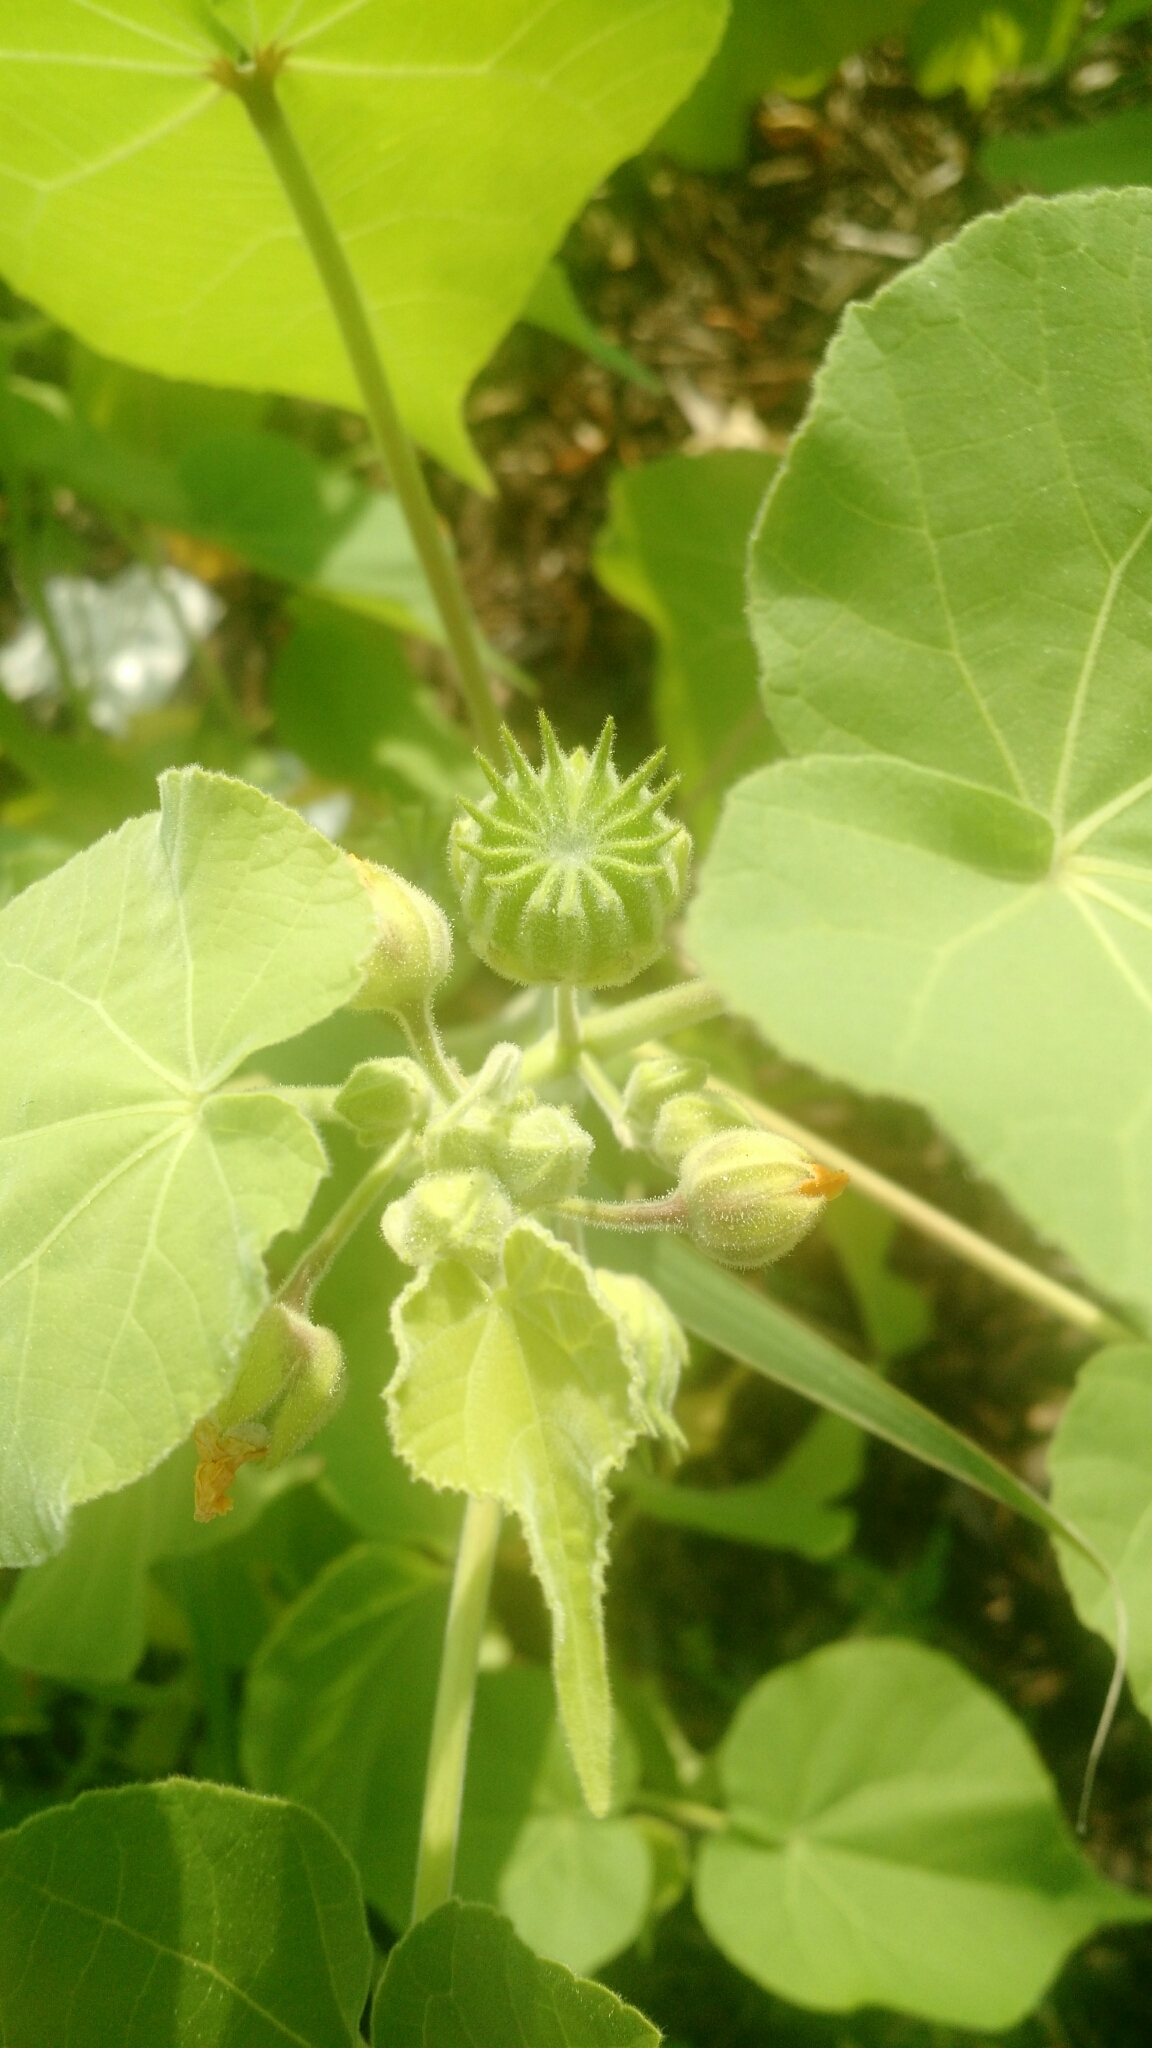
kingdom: Plantae
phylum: Tracheophyta
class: Magnoliopsida
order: Malvales
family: Malvaceae
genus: Abutilon
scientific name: Abutilon theophrasti
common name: Velvetleaf
